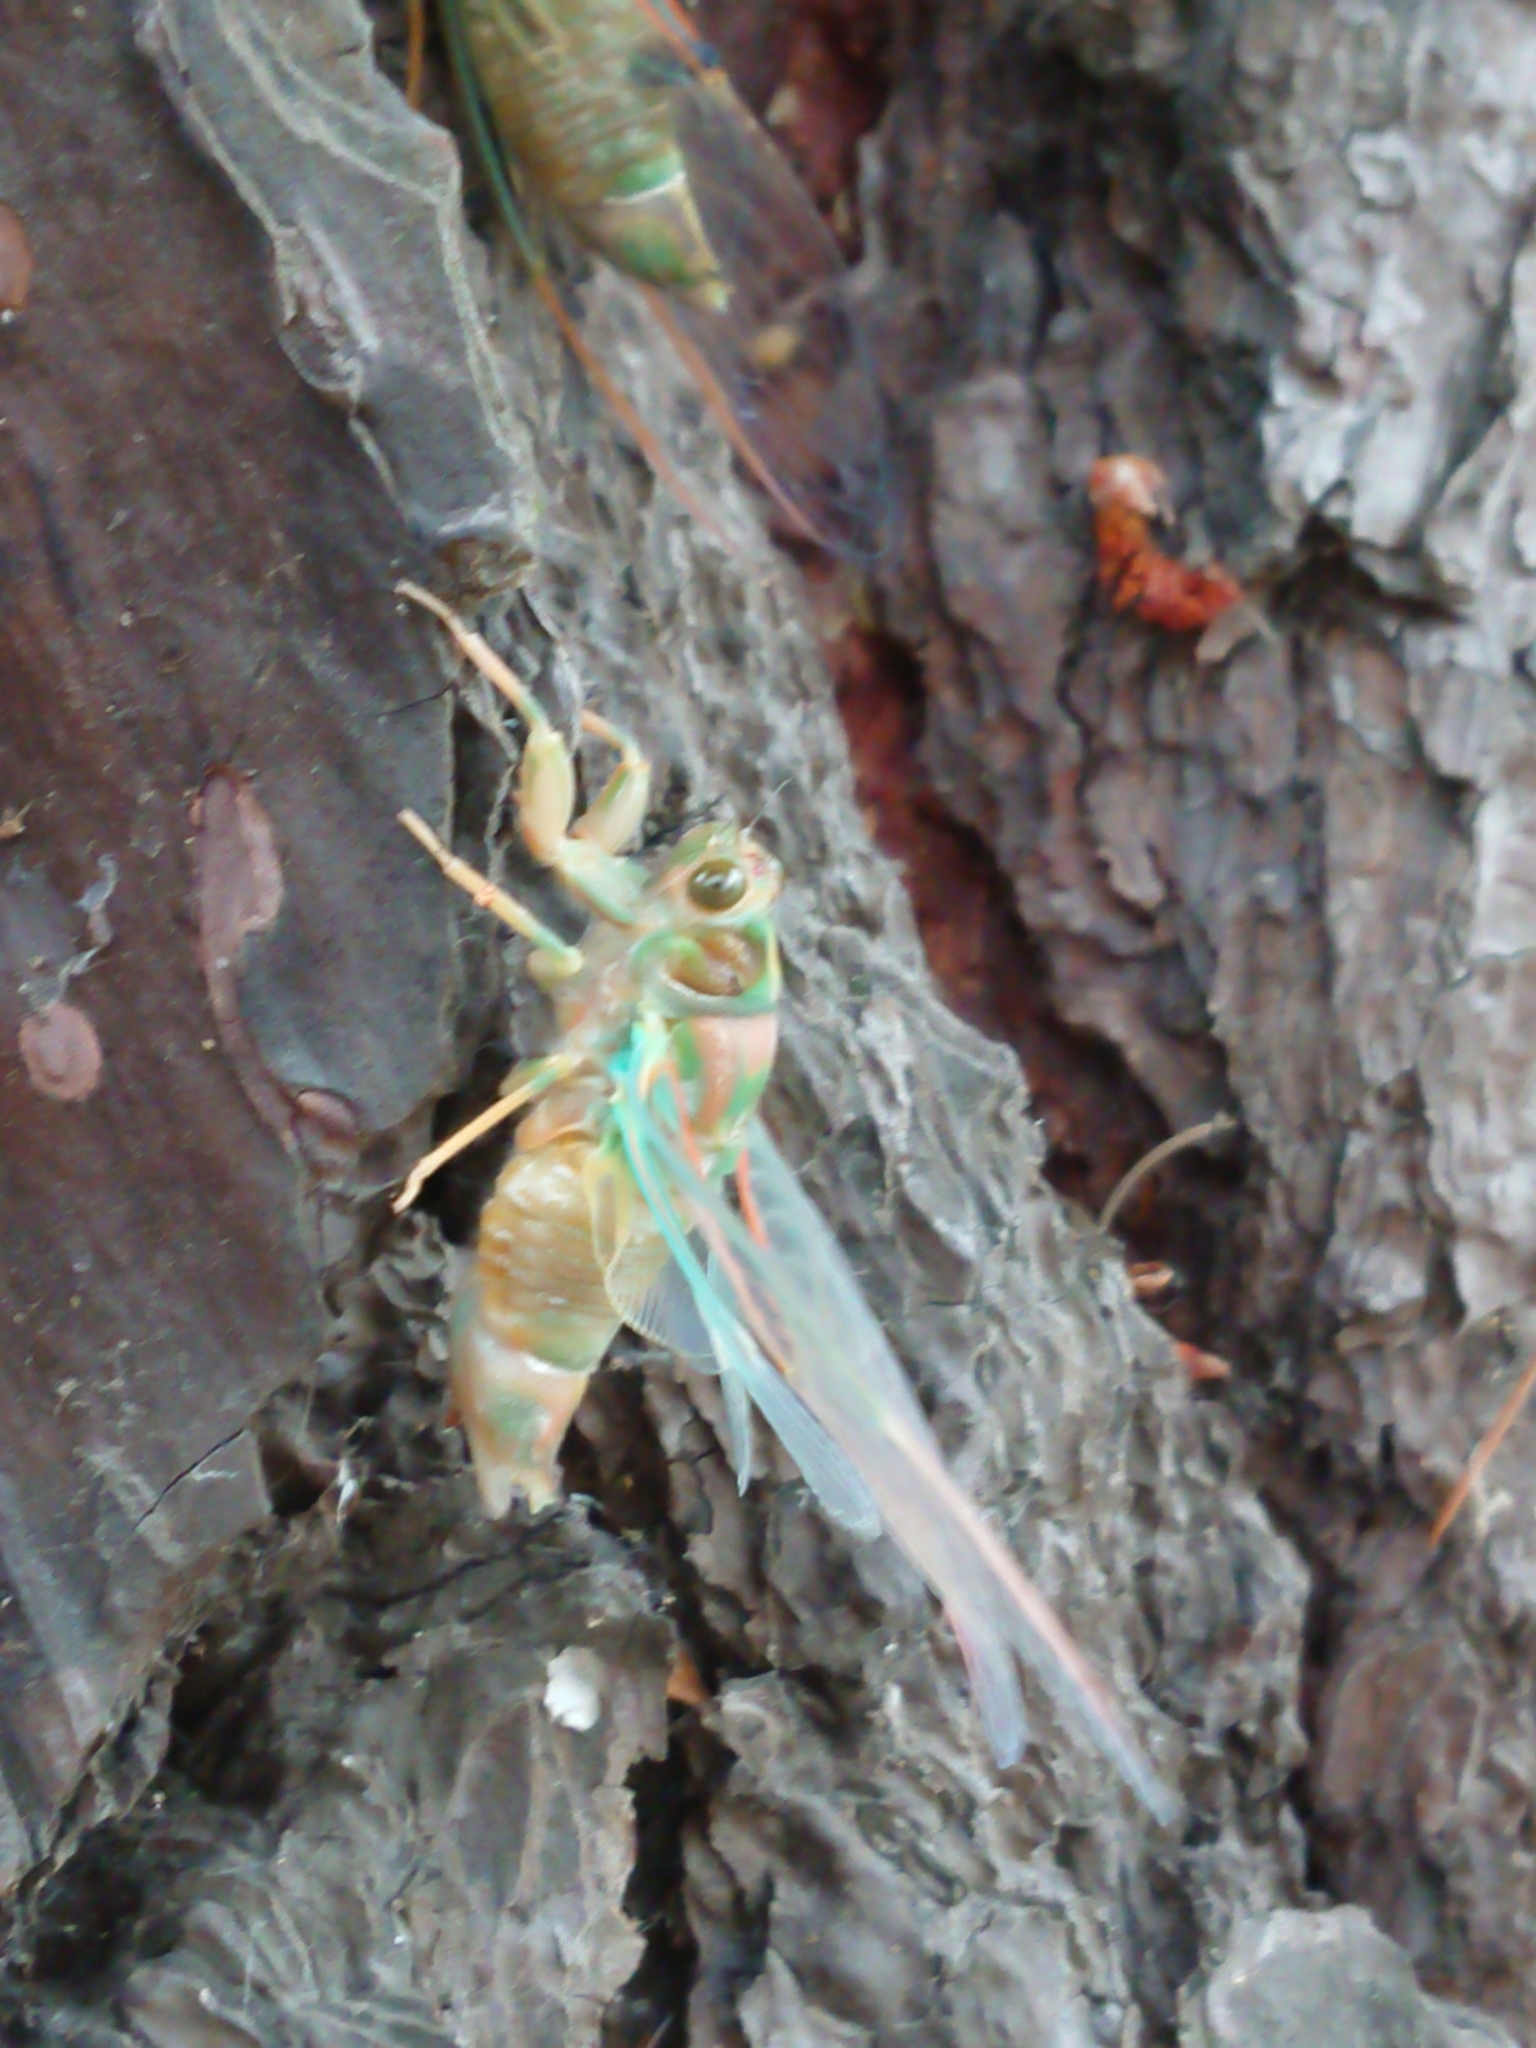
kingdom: Animalia
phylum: Arthropoda
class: Insecta
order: Hemiptera
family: Cicadidae
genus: Amphipsalta
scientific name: Amphipsalta zelandica
